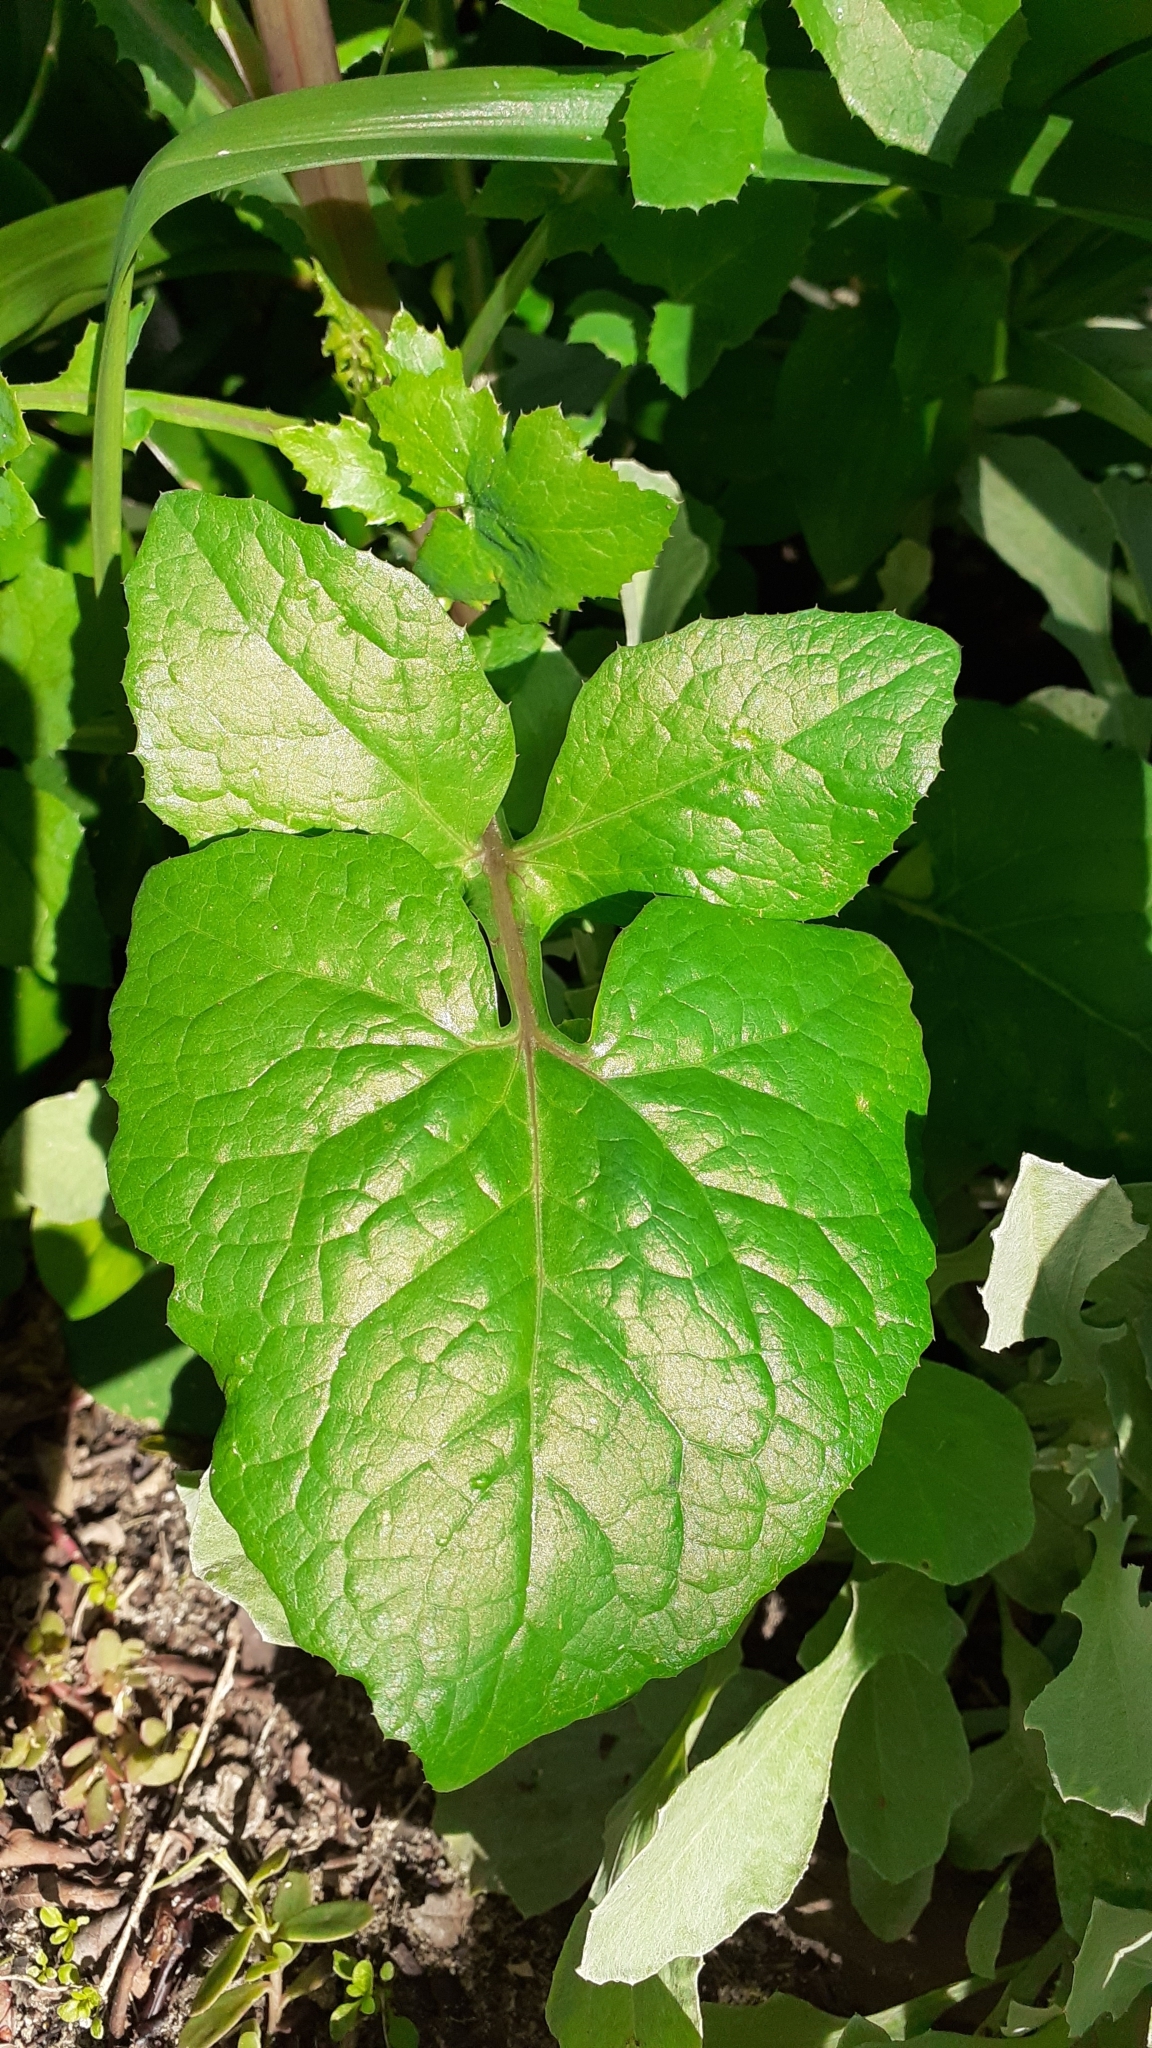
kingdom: Plantae
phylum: Tracheophyta
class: Magnoliopsida
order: Asterales
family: Asteraceae
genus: Sonchus
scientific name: Sonchus oleraceus
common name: Common sowthistle
